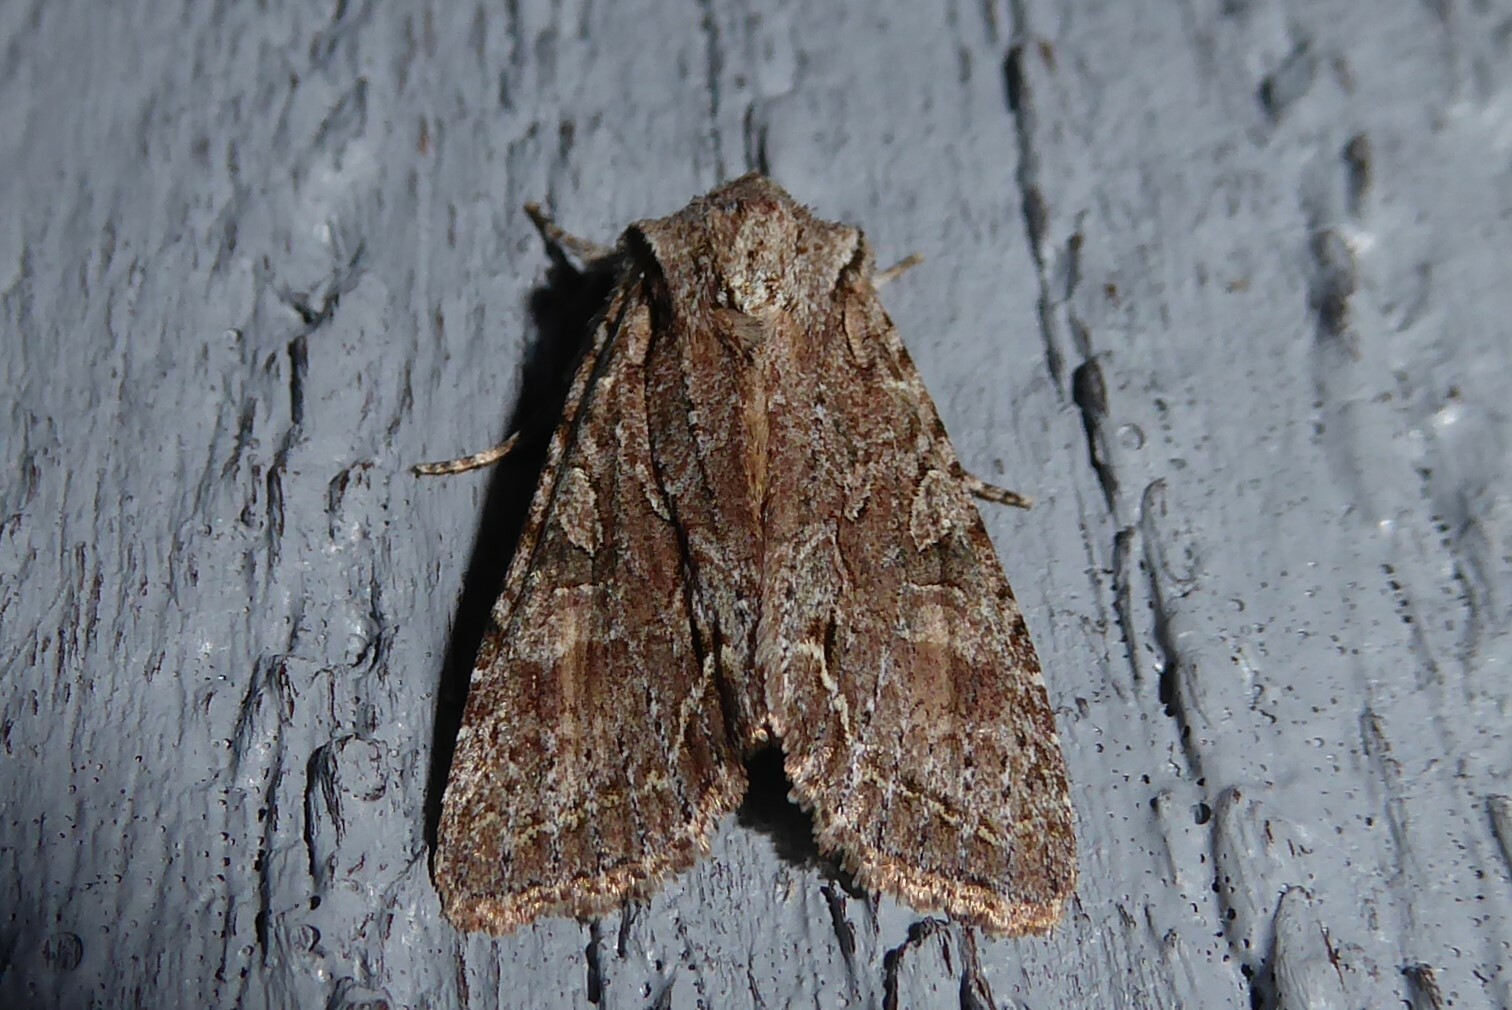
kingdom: Animalia
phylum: Arthropoda
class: Insecta
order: Lepidoptera
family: Noctuidae
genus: Ichneutica
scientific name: Ichneutica mutans
